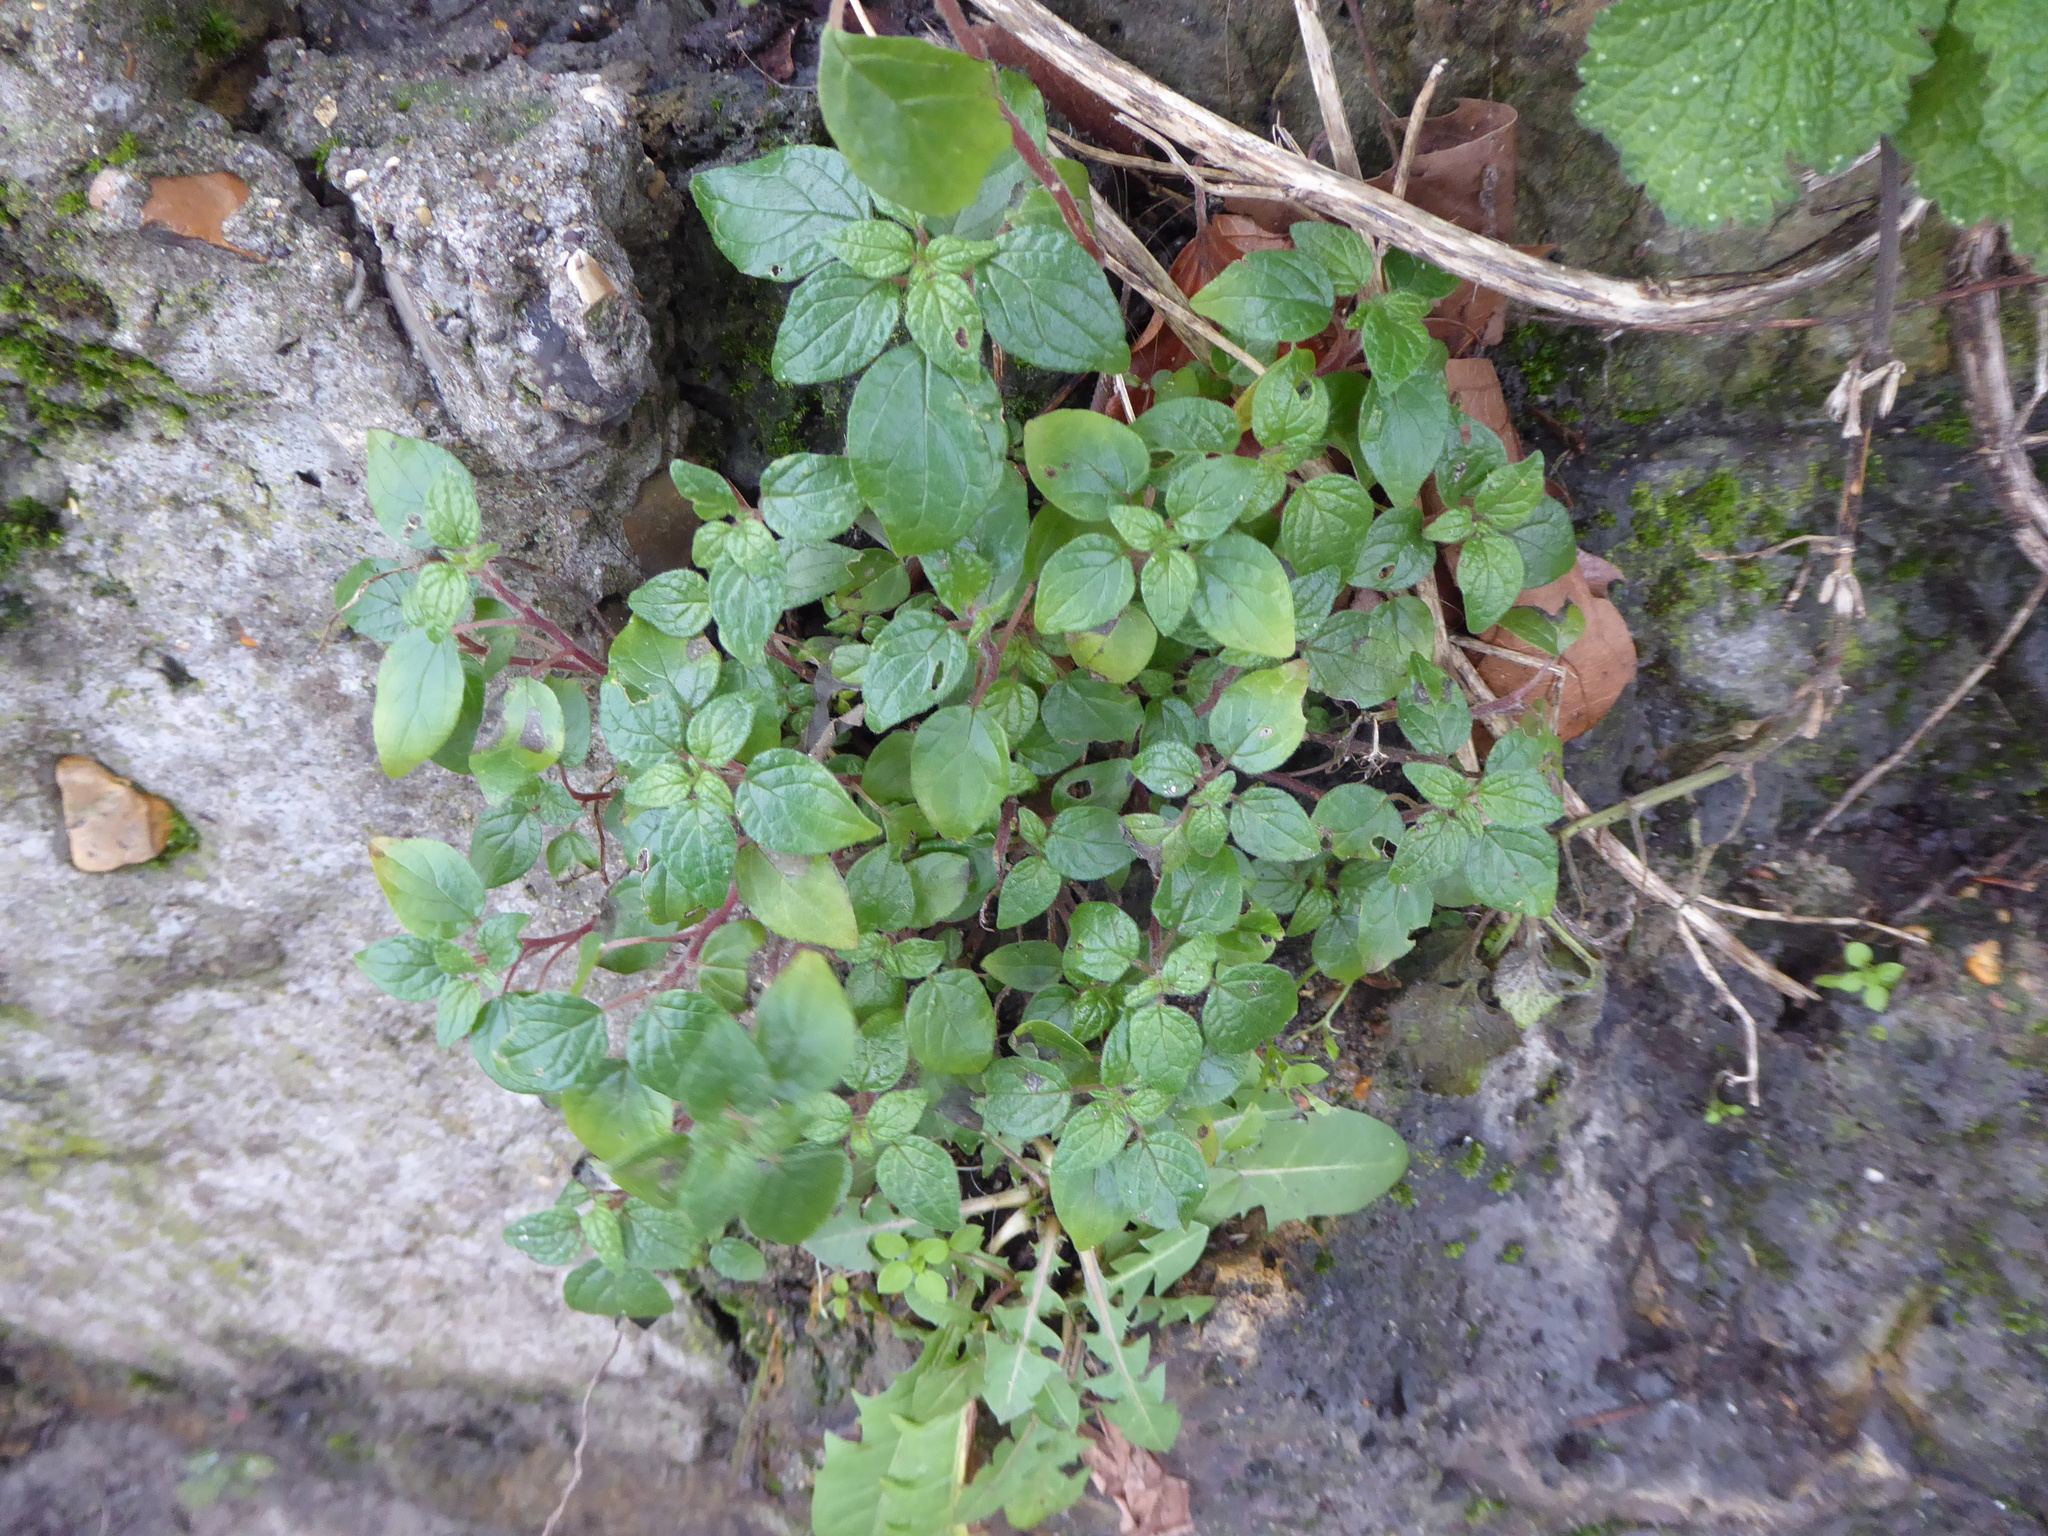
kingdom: Plantae
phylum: Tracheophyta
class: Magnoliopsida
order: Rosales
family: Urticaceae
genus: Parietaria
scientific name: Parietaria judaica
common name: Pellitory-of-the-wall
